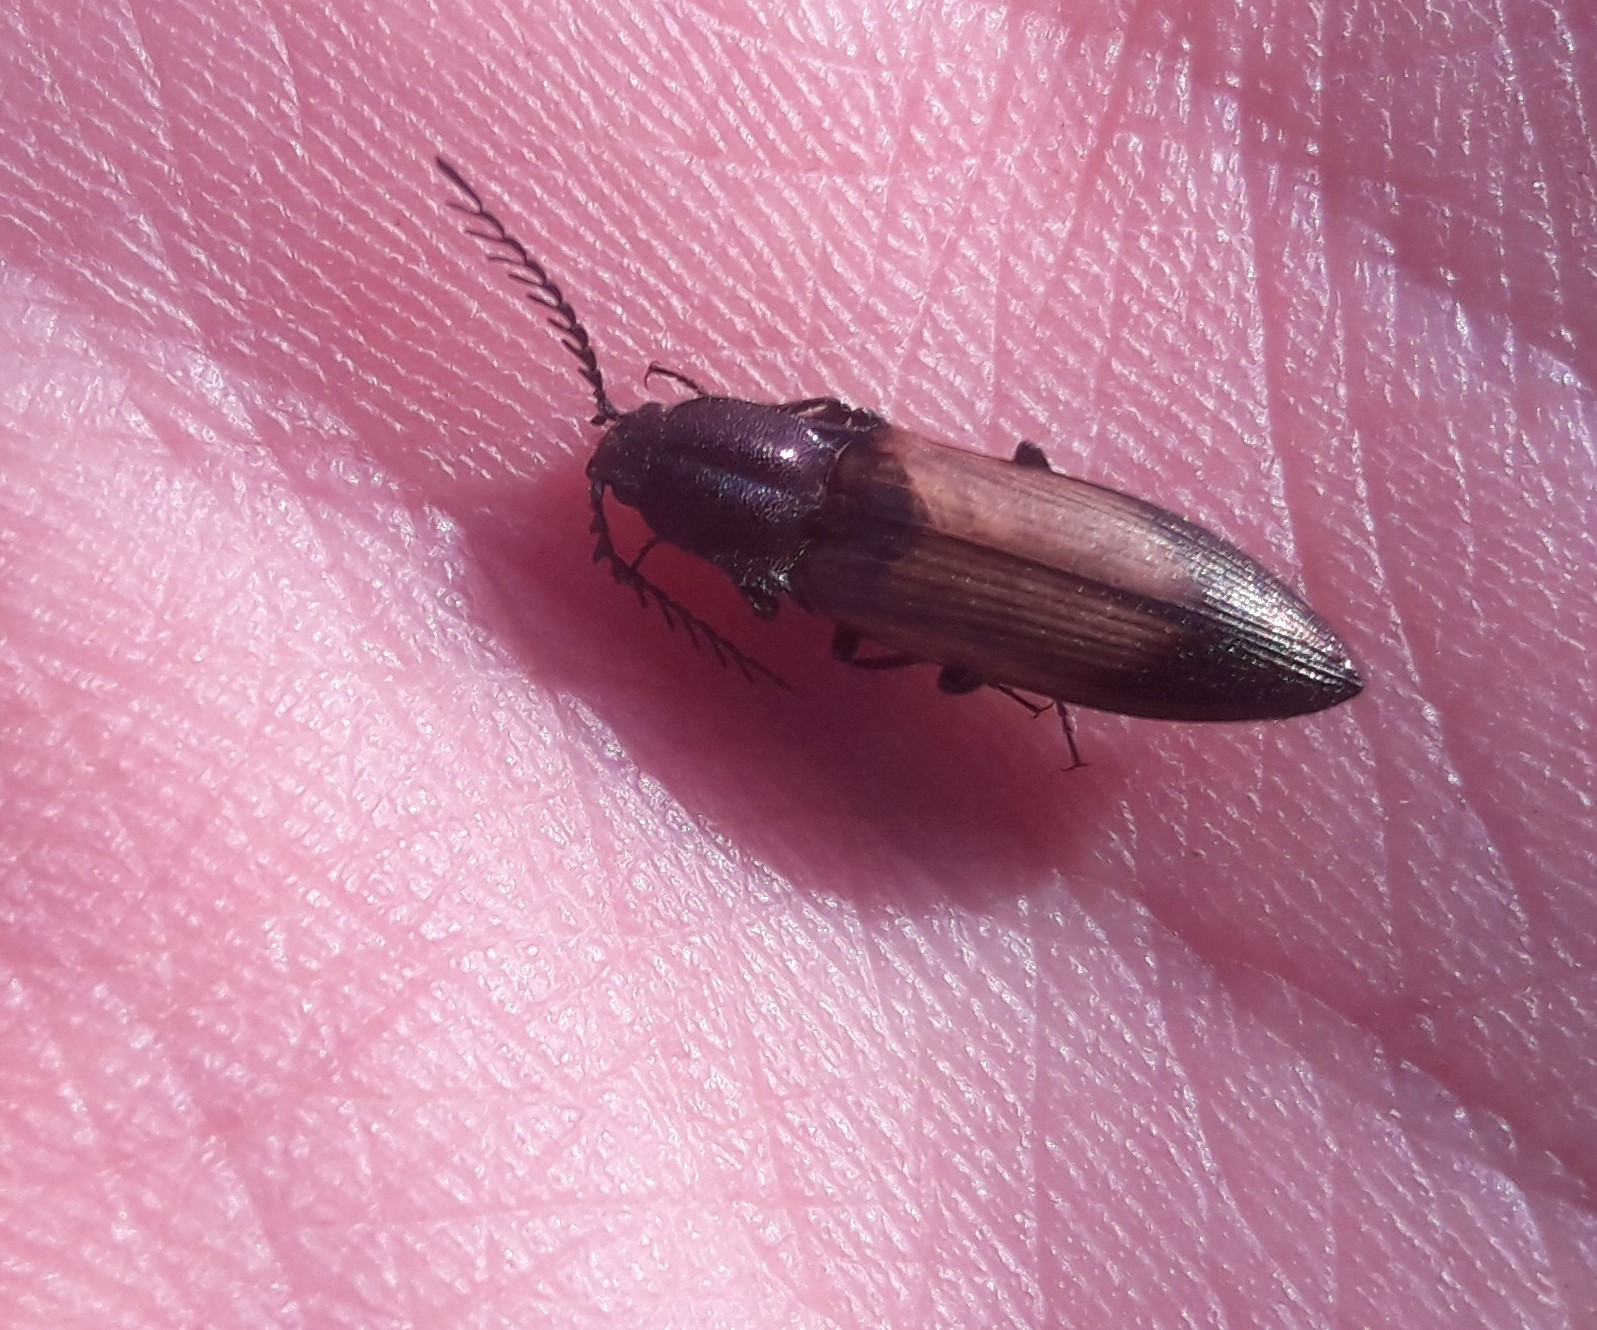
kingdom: Animalia
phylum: Arthropoda
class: Insecta
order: Coleoptera
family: Elateridae
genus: Ctenicera
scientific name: Ctenicera cuprea
